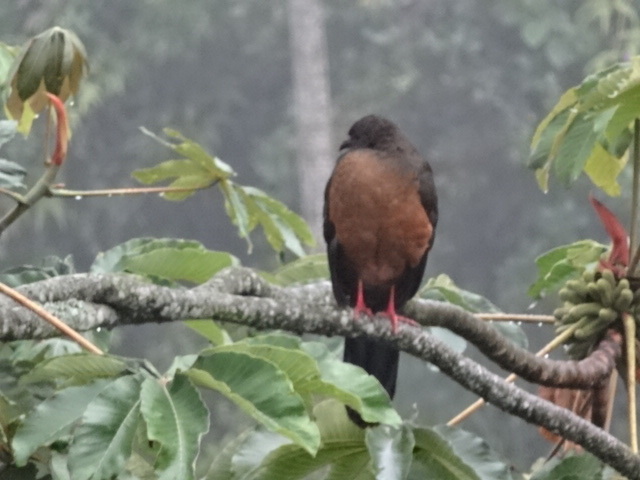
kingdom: Animalia
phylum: Chordata
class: Aves
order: Galliformes
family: Cracidae
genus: Chamaepetes
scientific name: Chamaepetes goudotii
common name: Sickle-winged guan
